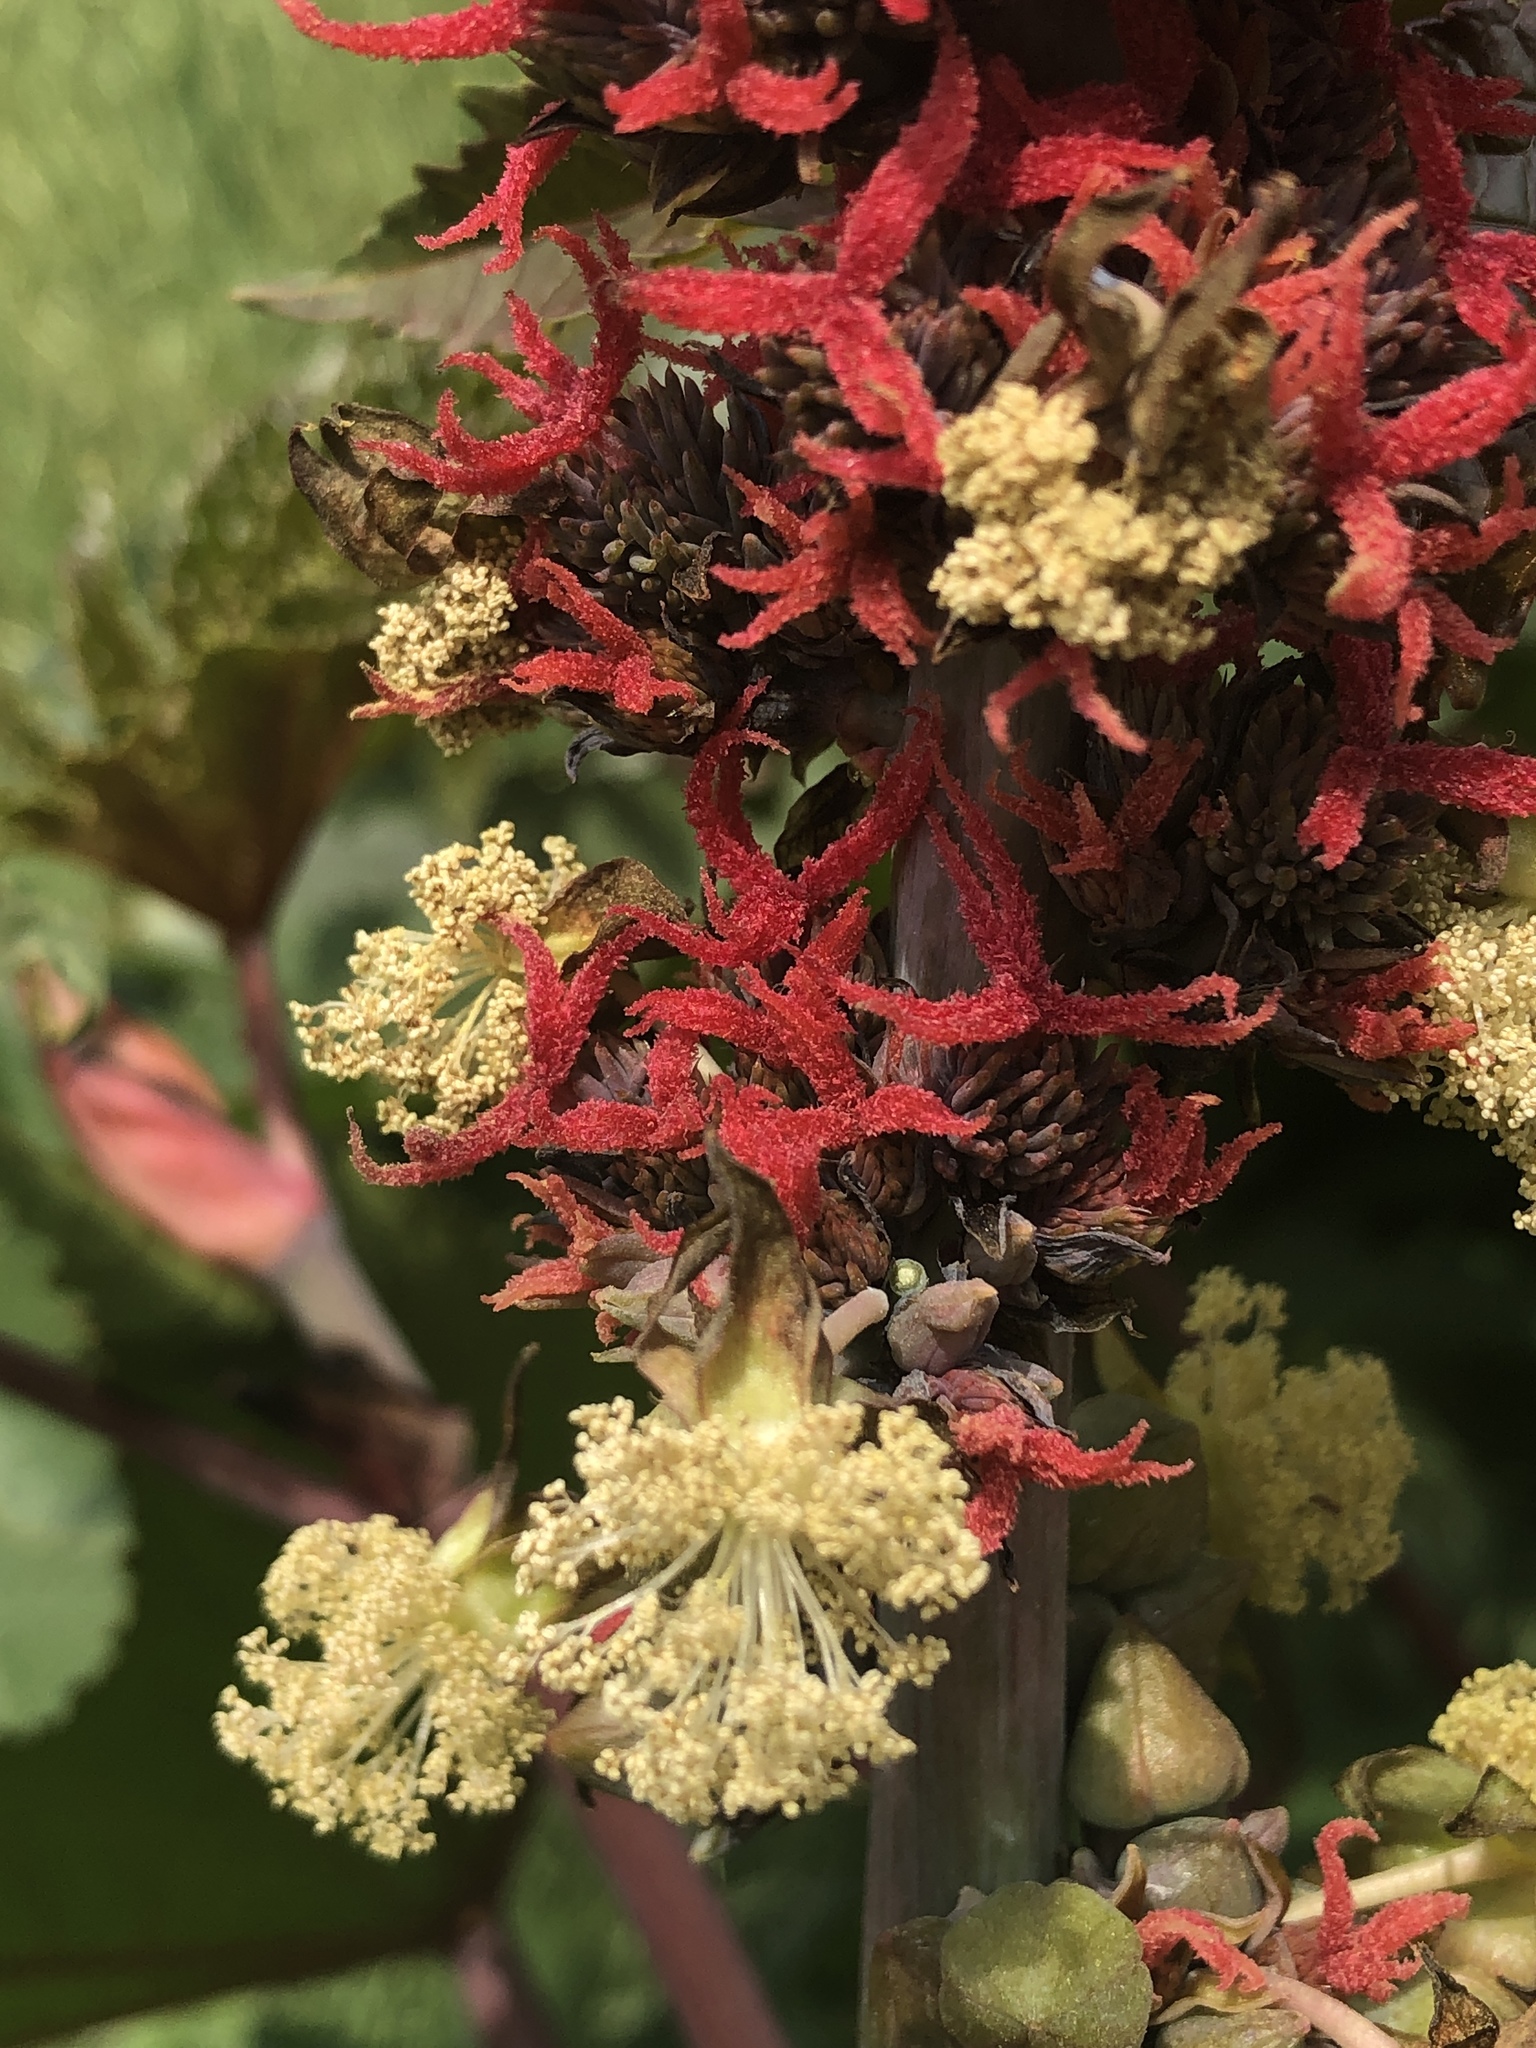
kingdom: Plantae
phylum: Tracheophyta
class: Magnoliopsida
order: Malpighiales
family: Euphorbiaceae
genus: Ricinus
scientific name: Ricinus communis
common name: Castor-oil-plant
